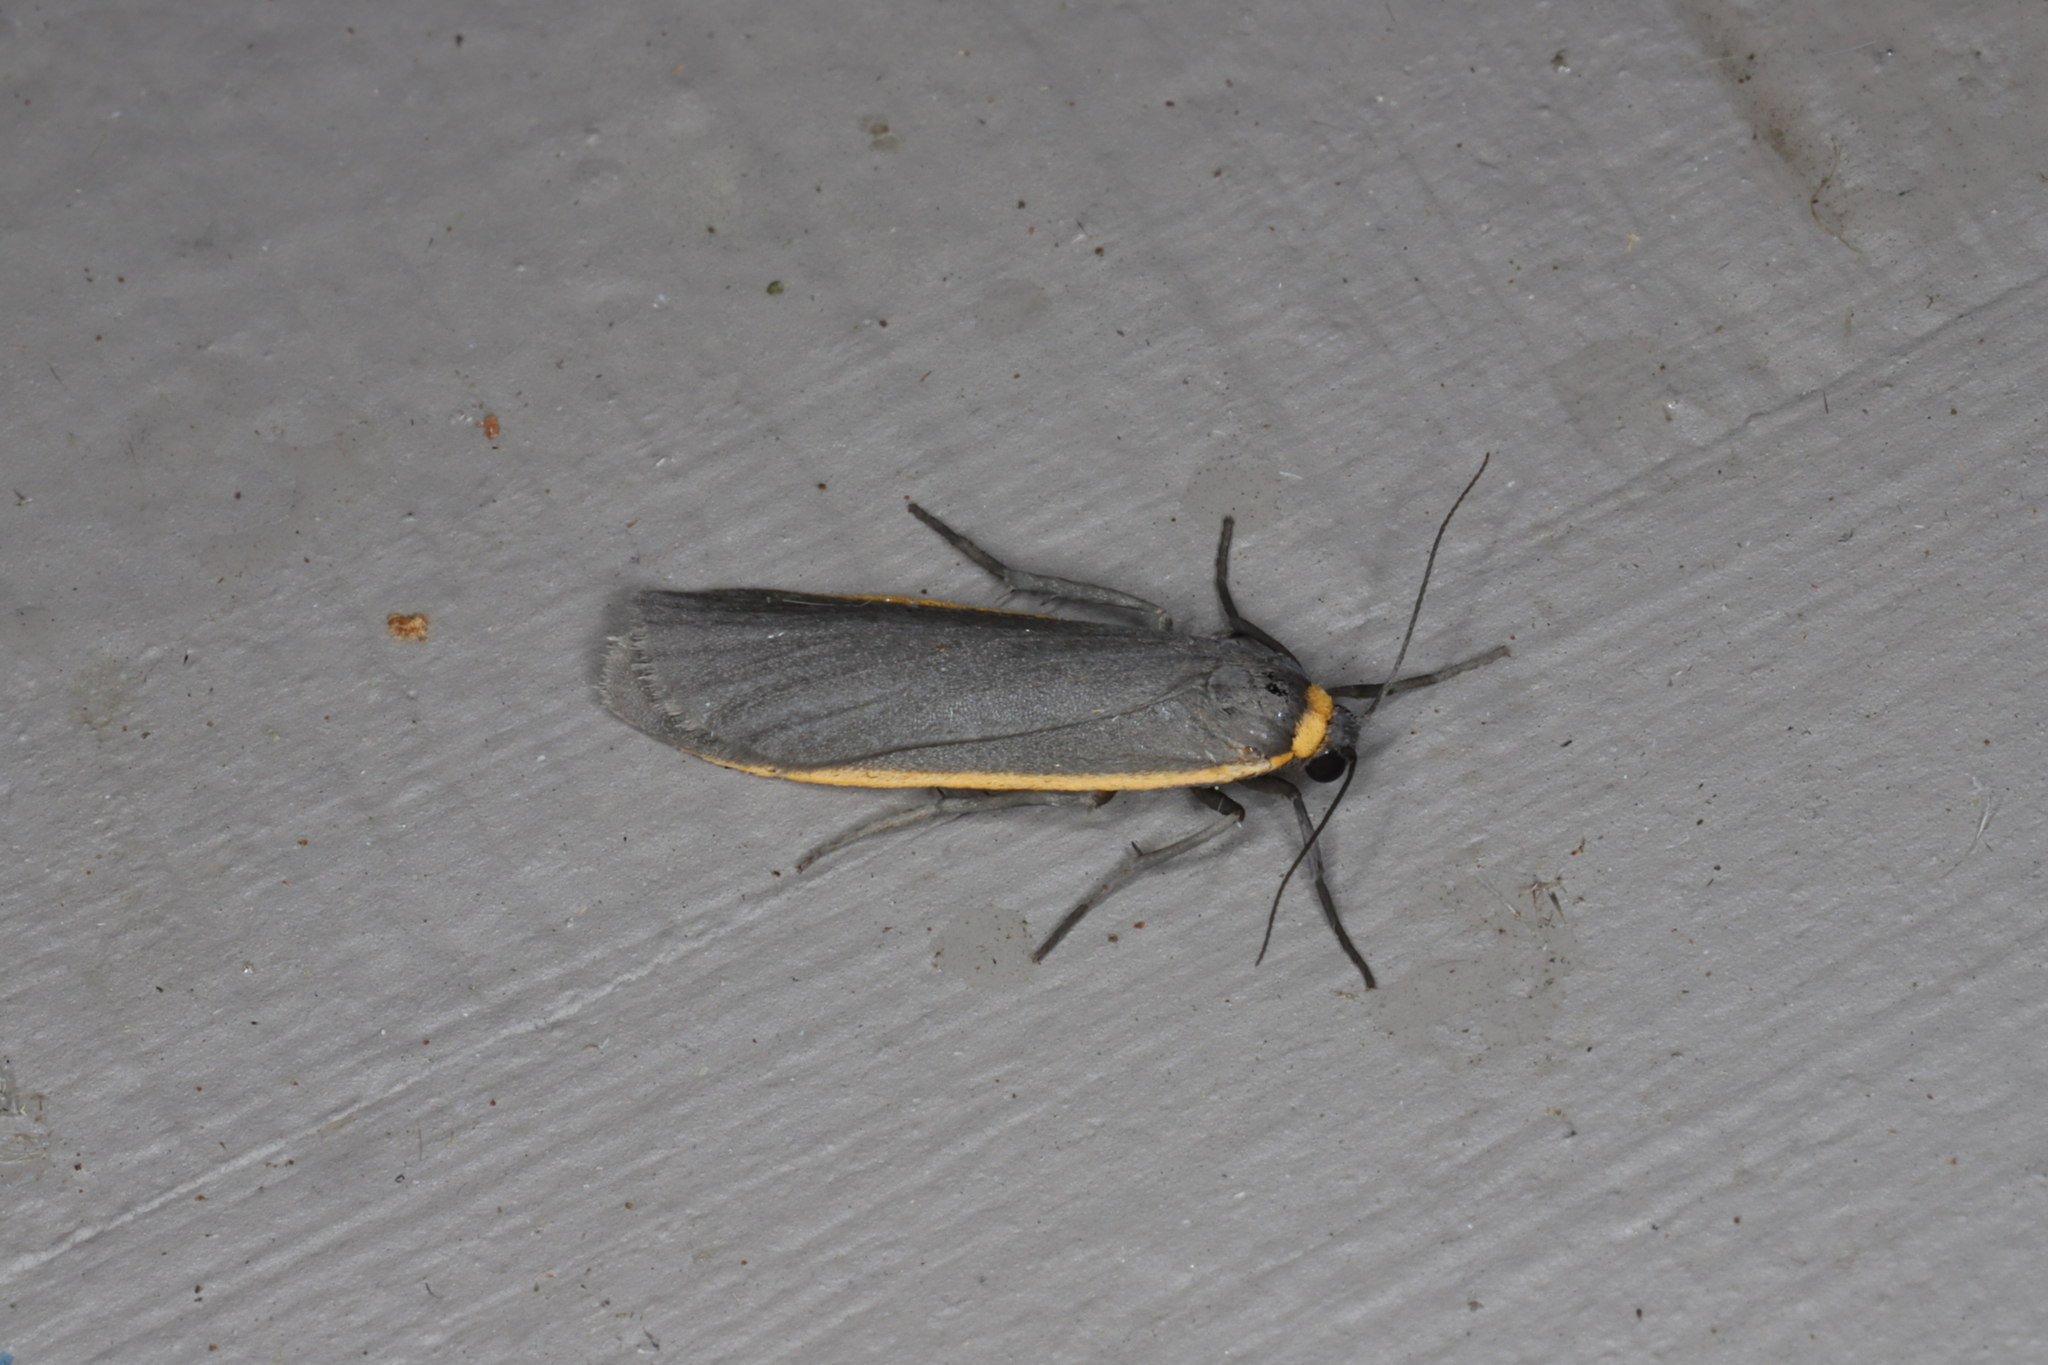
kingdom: Animalia
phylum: Arthropoda
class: Insecta
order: Lepidoptera
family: Erebidae
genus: Manulea
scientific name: Manulea bicolor
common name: Bicolored moth
